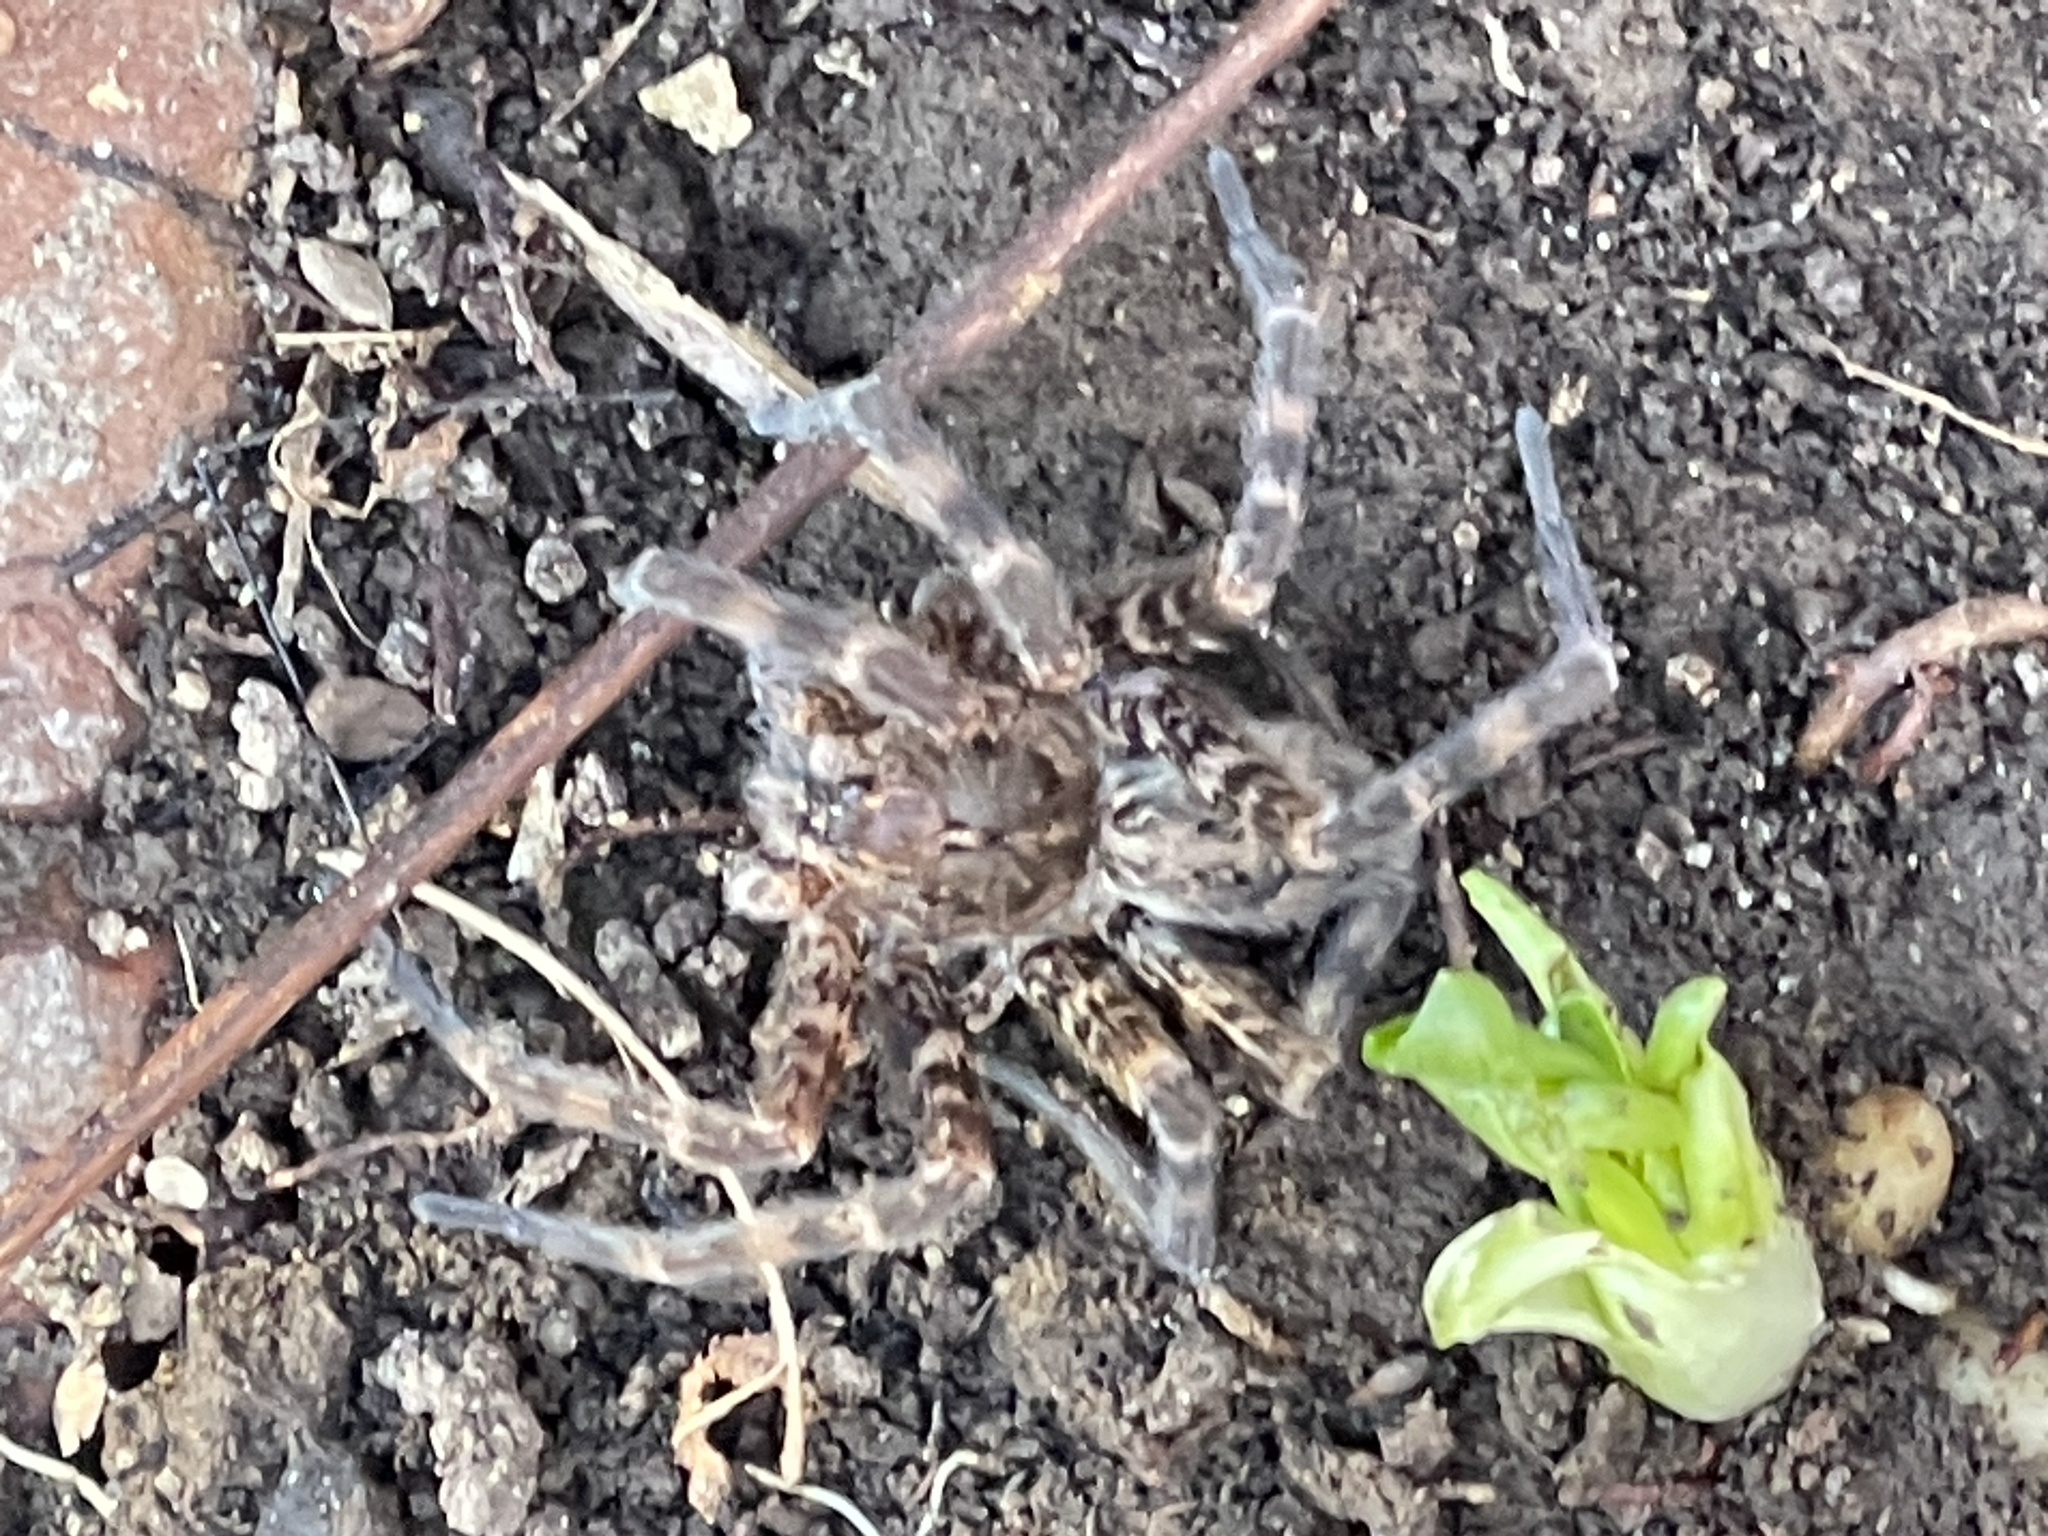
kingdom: Animalia
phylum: Arthropoda
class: Arachnida
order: Araneae
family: Pisauridae
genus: Dolomedes
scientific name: Dolomedes tenebrosus
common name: Dark fishing spider
